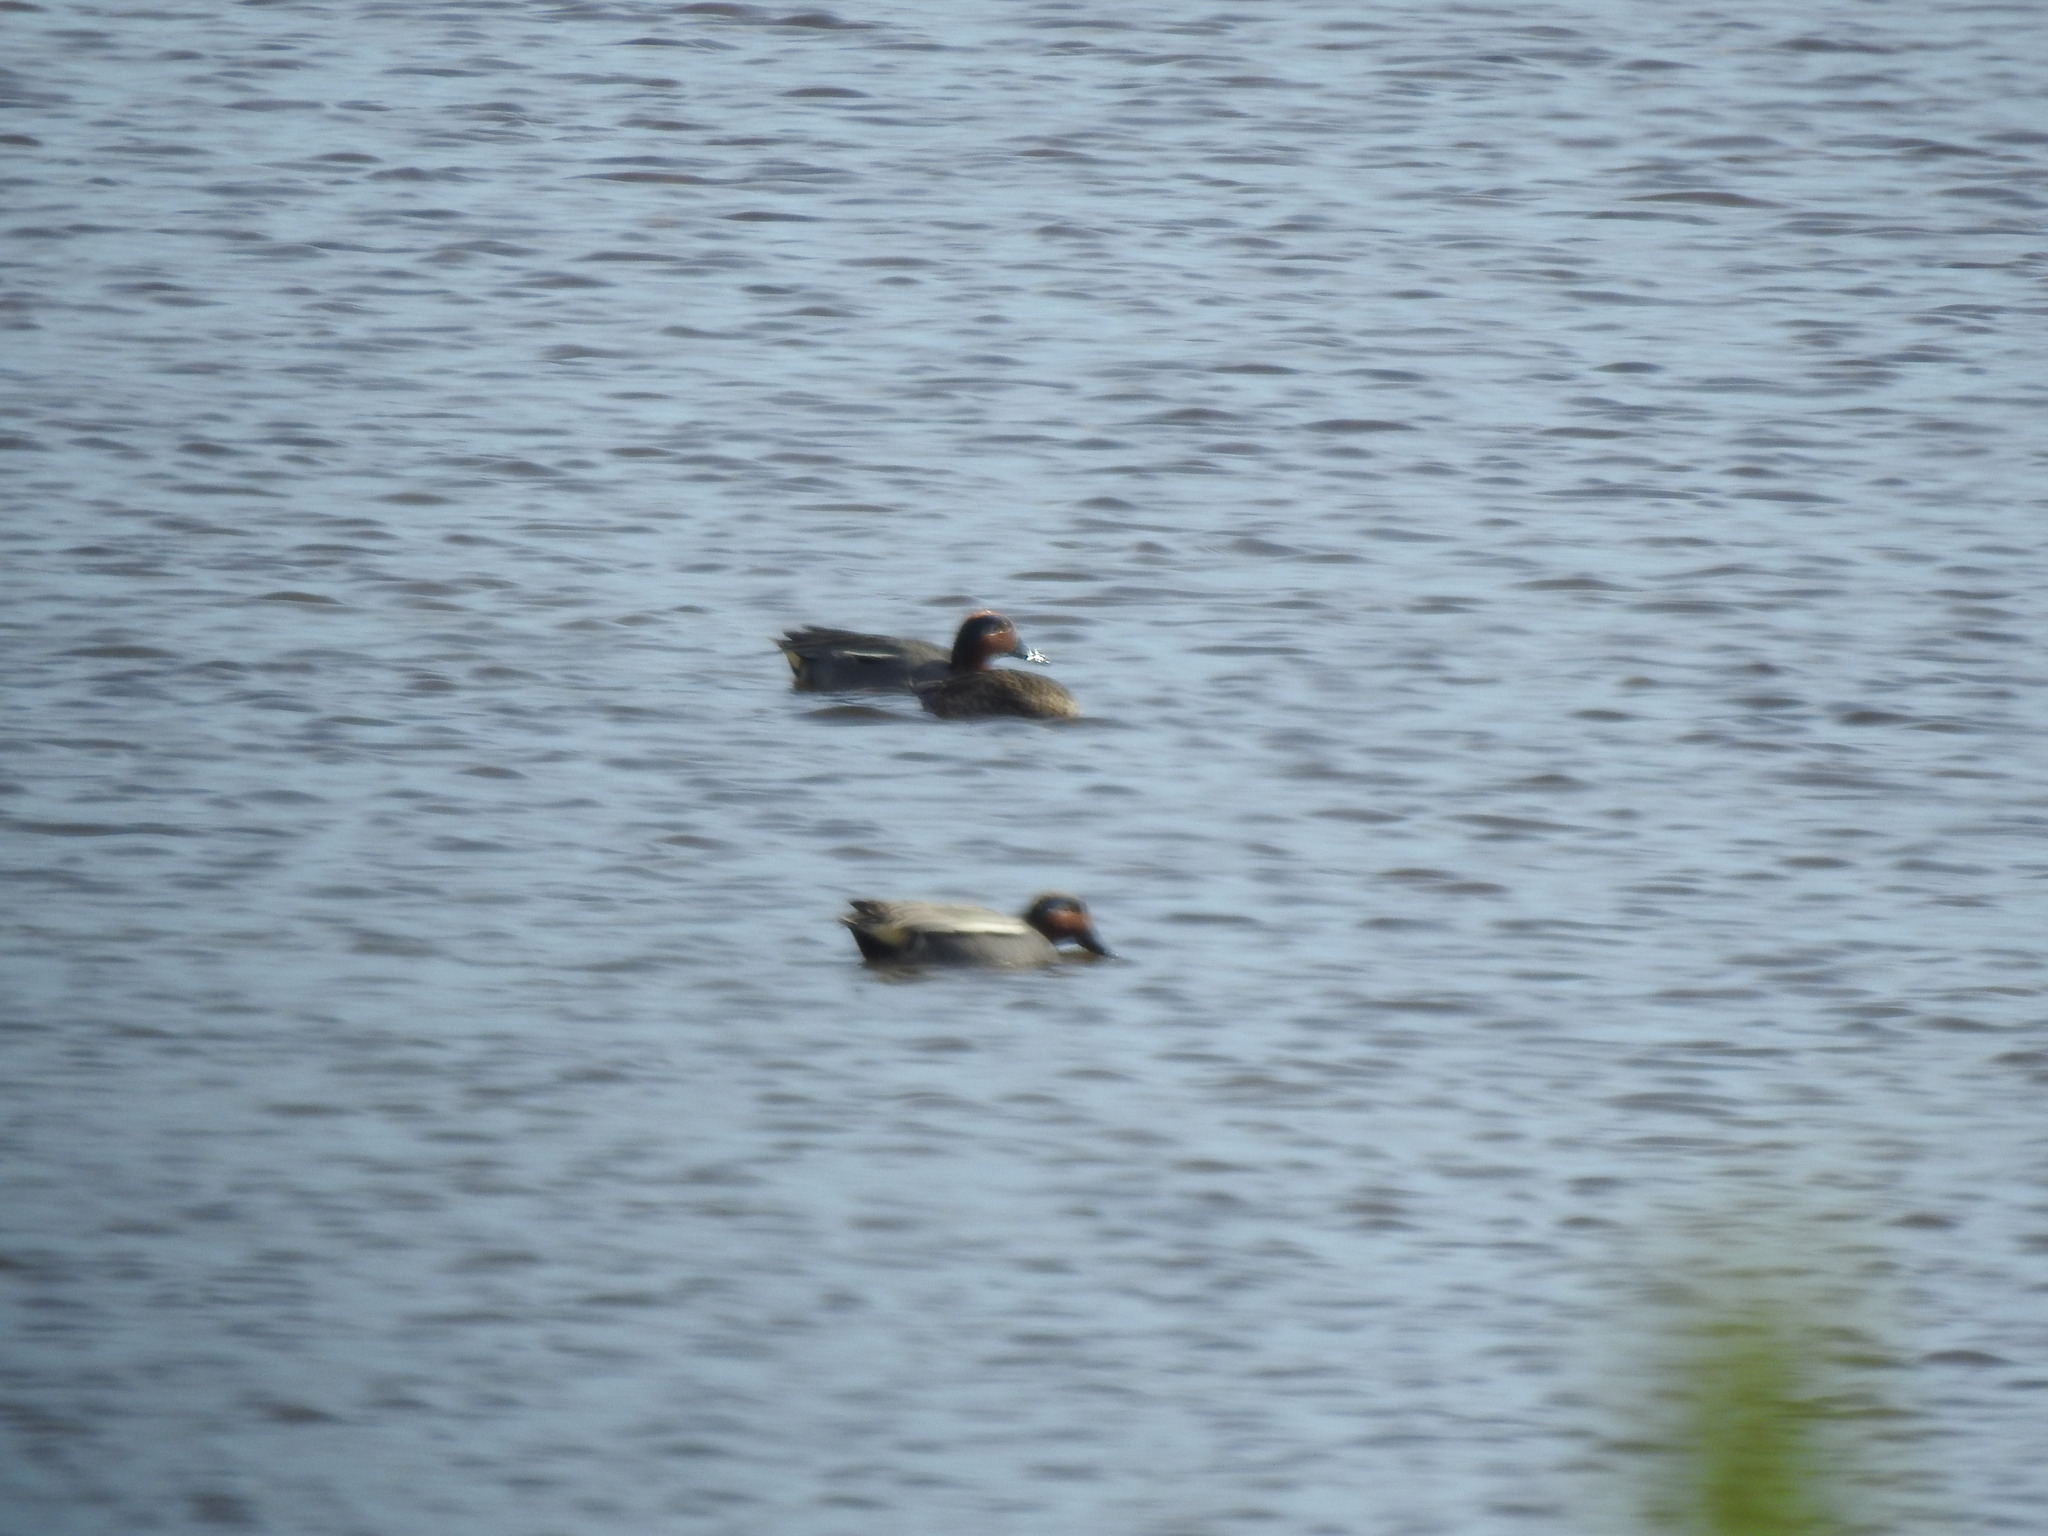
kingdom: Animalia
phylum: Chordata
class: Aves
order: Anseriformes
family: Anatidae
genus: Anas
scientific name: Anas crecca
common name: Eurasian teal
